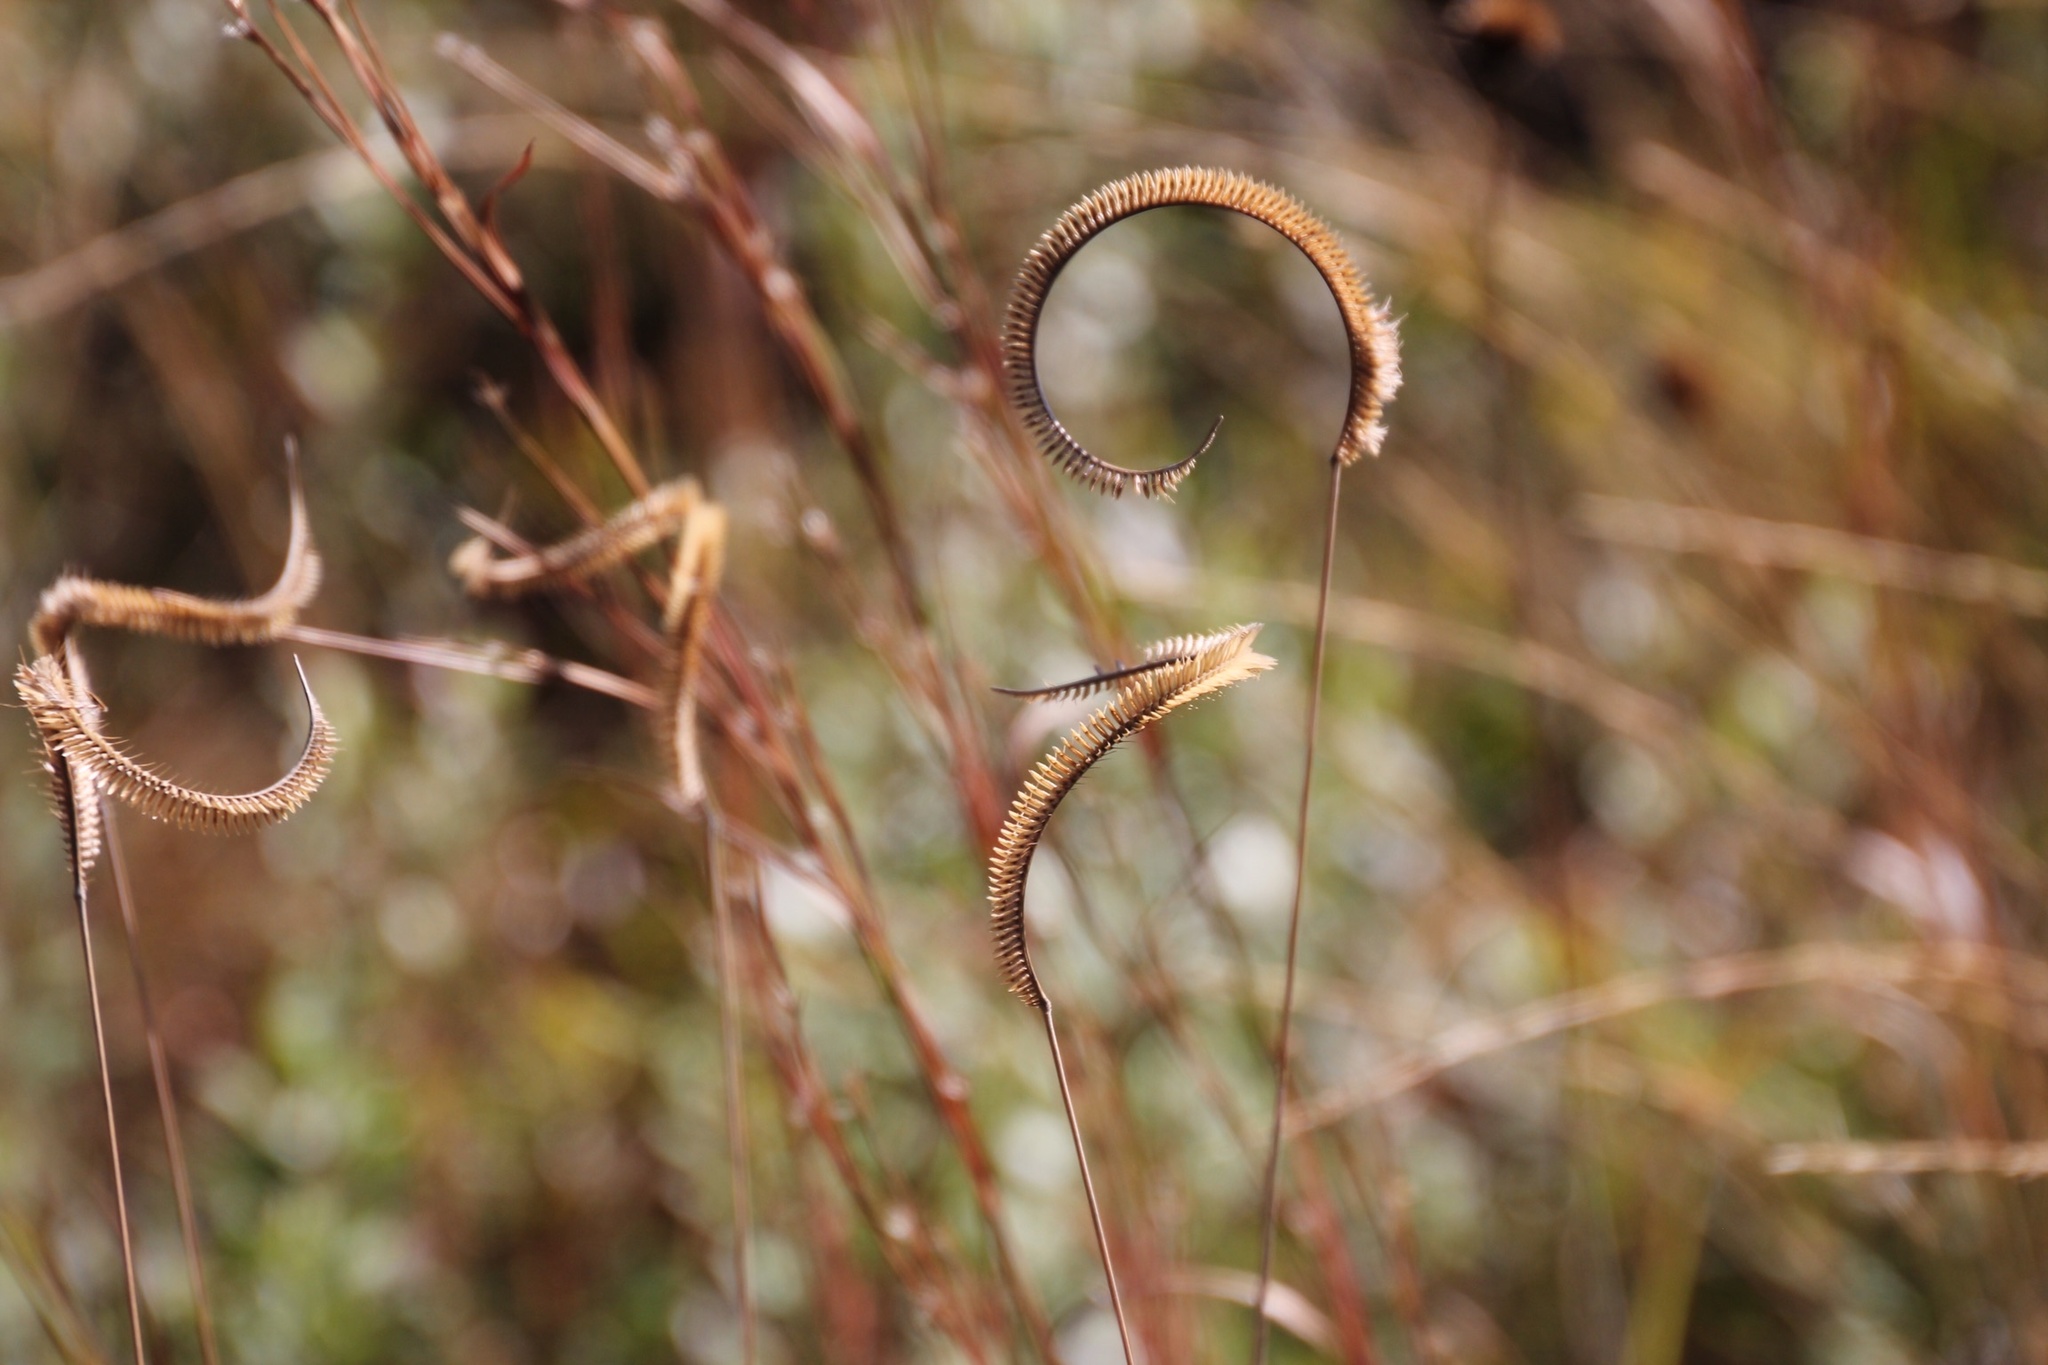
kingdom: Plantae
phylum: Tracheophyta
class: Liliopsida
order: Poales
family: Poaceae
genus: Ctenium
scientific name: Ctenium aromaticum
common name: Toothache grass
